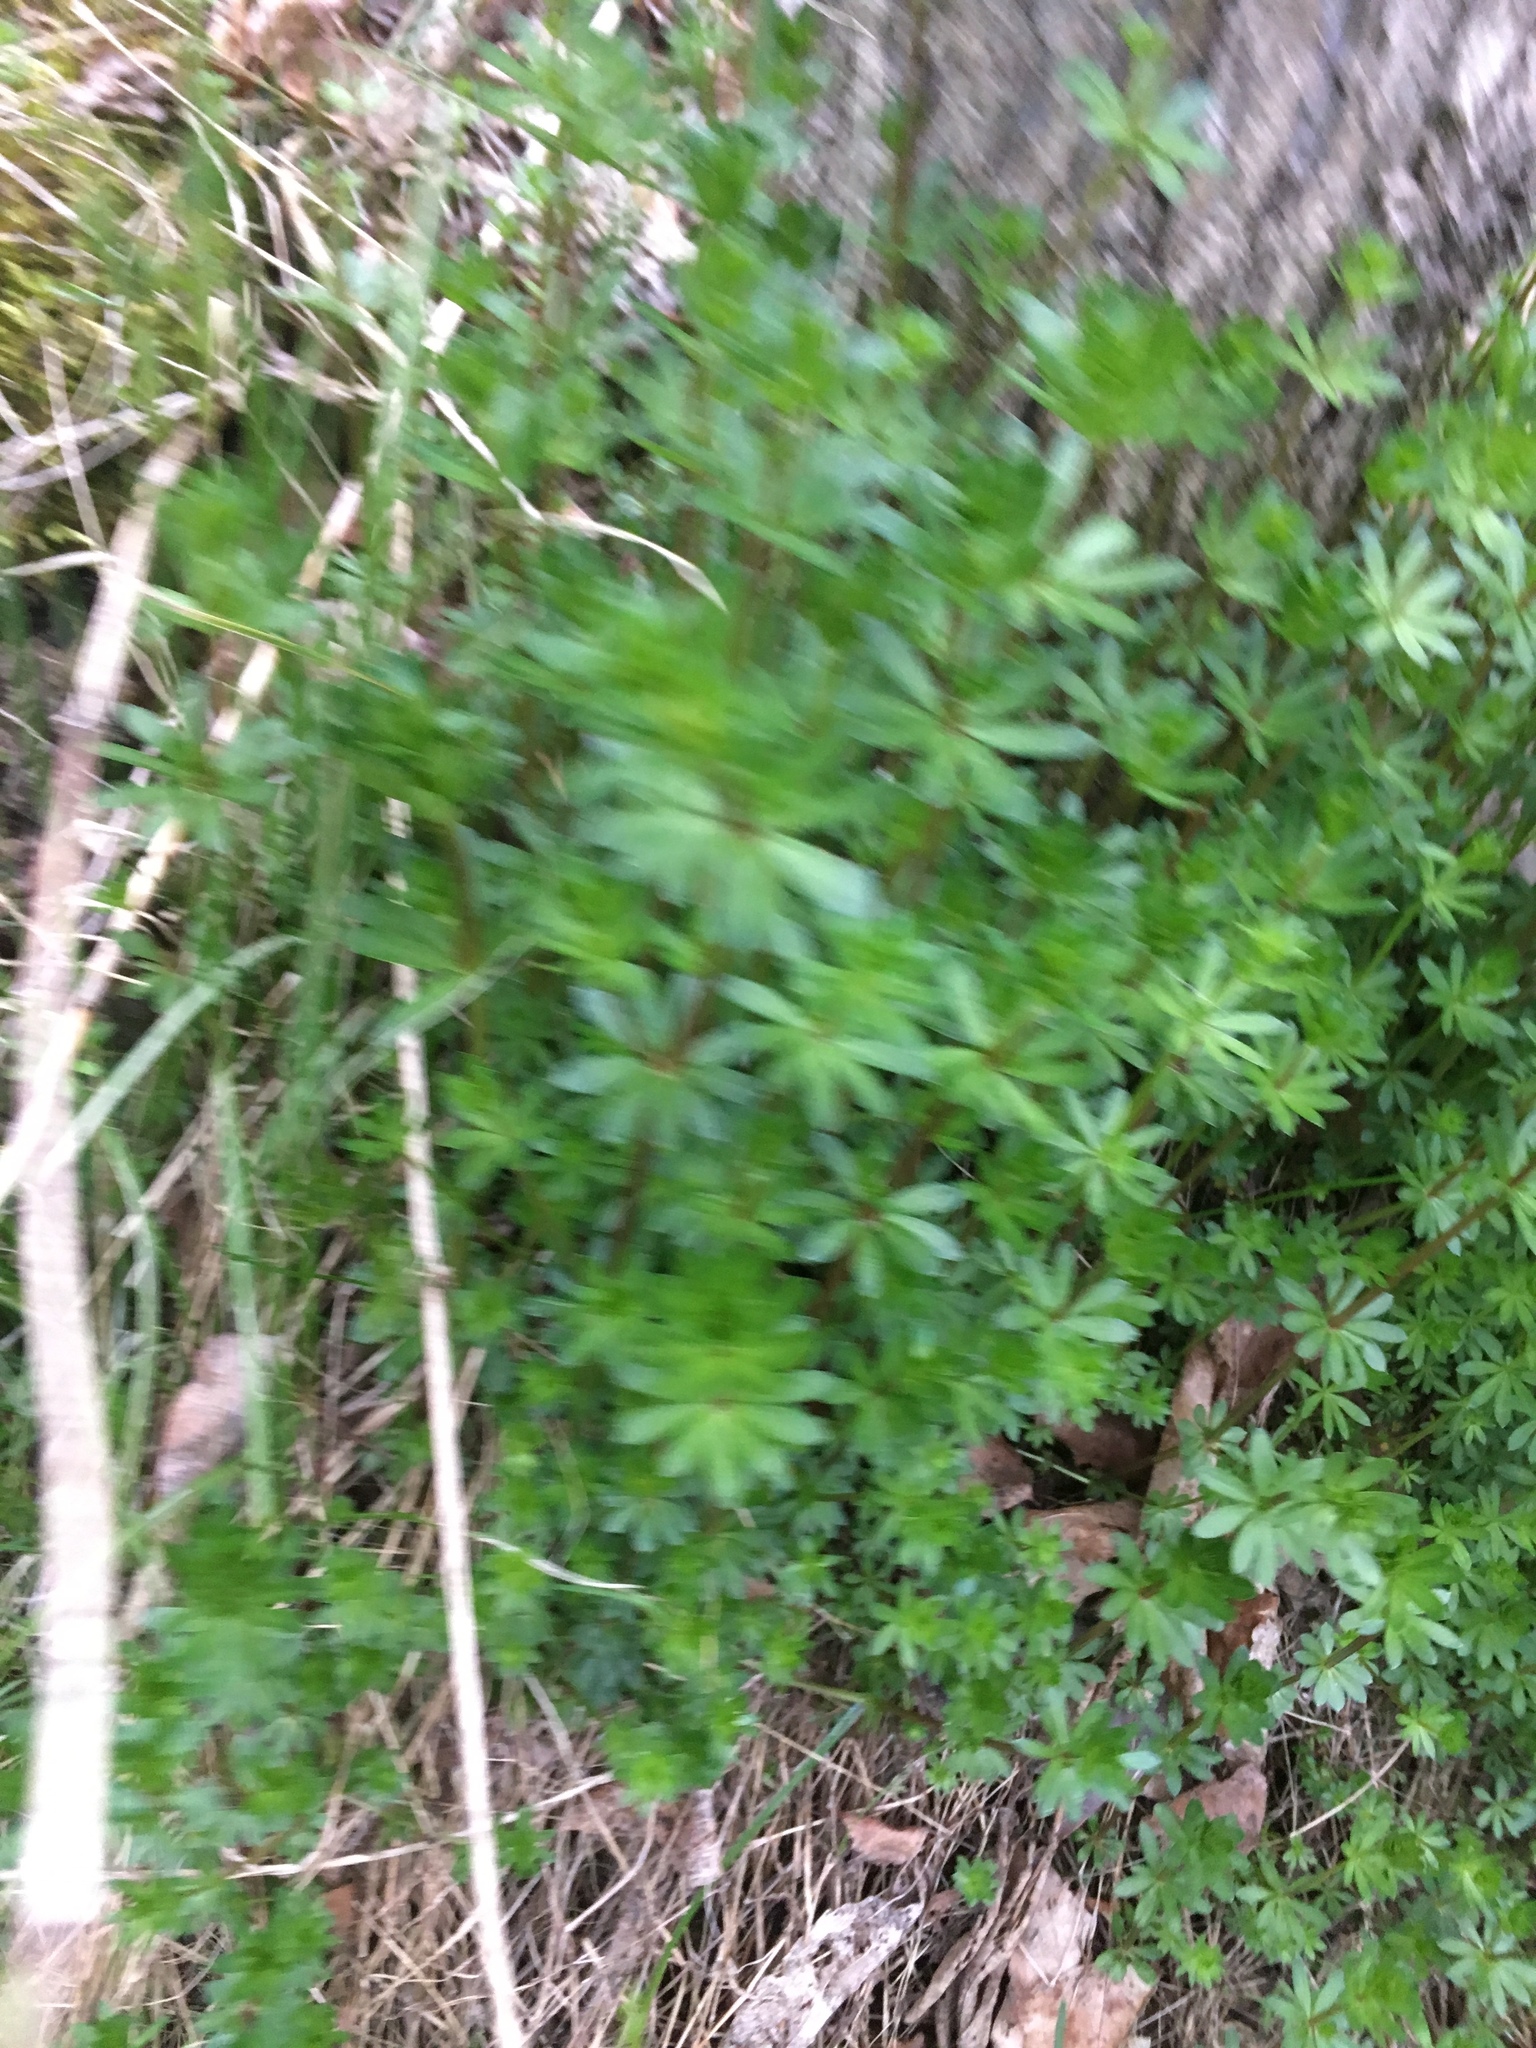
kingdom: Plantae
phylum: Tracheophyta
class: Magnoliopsida
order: Gentianales
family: Rubiaceae
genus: Galium
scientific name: Galium mollugo
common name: Hedge bedstraw
